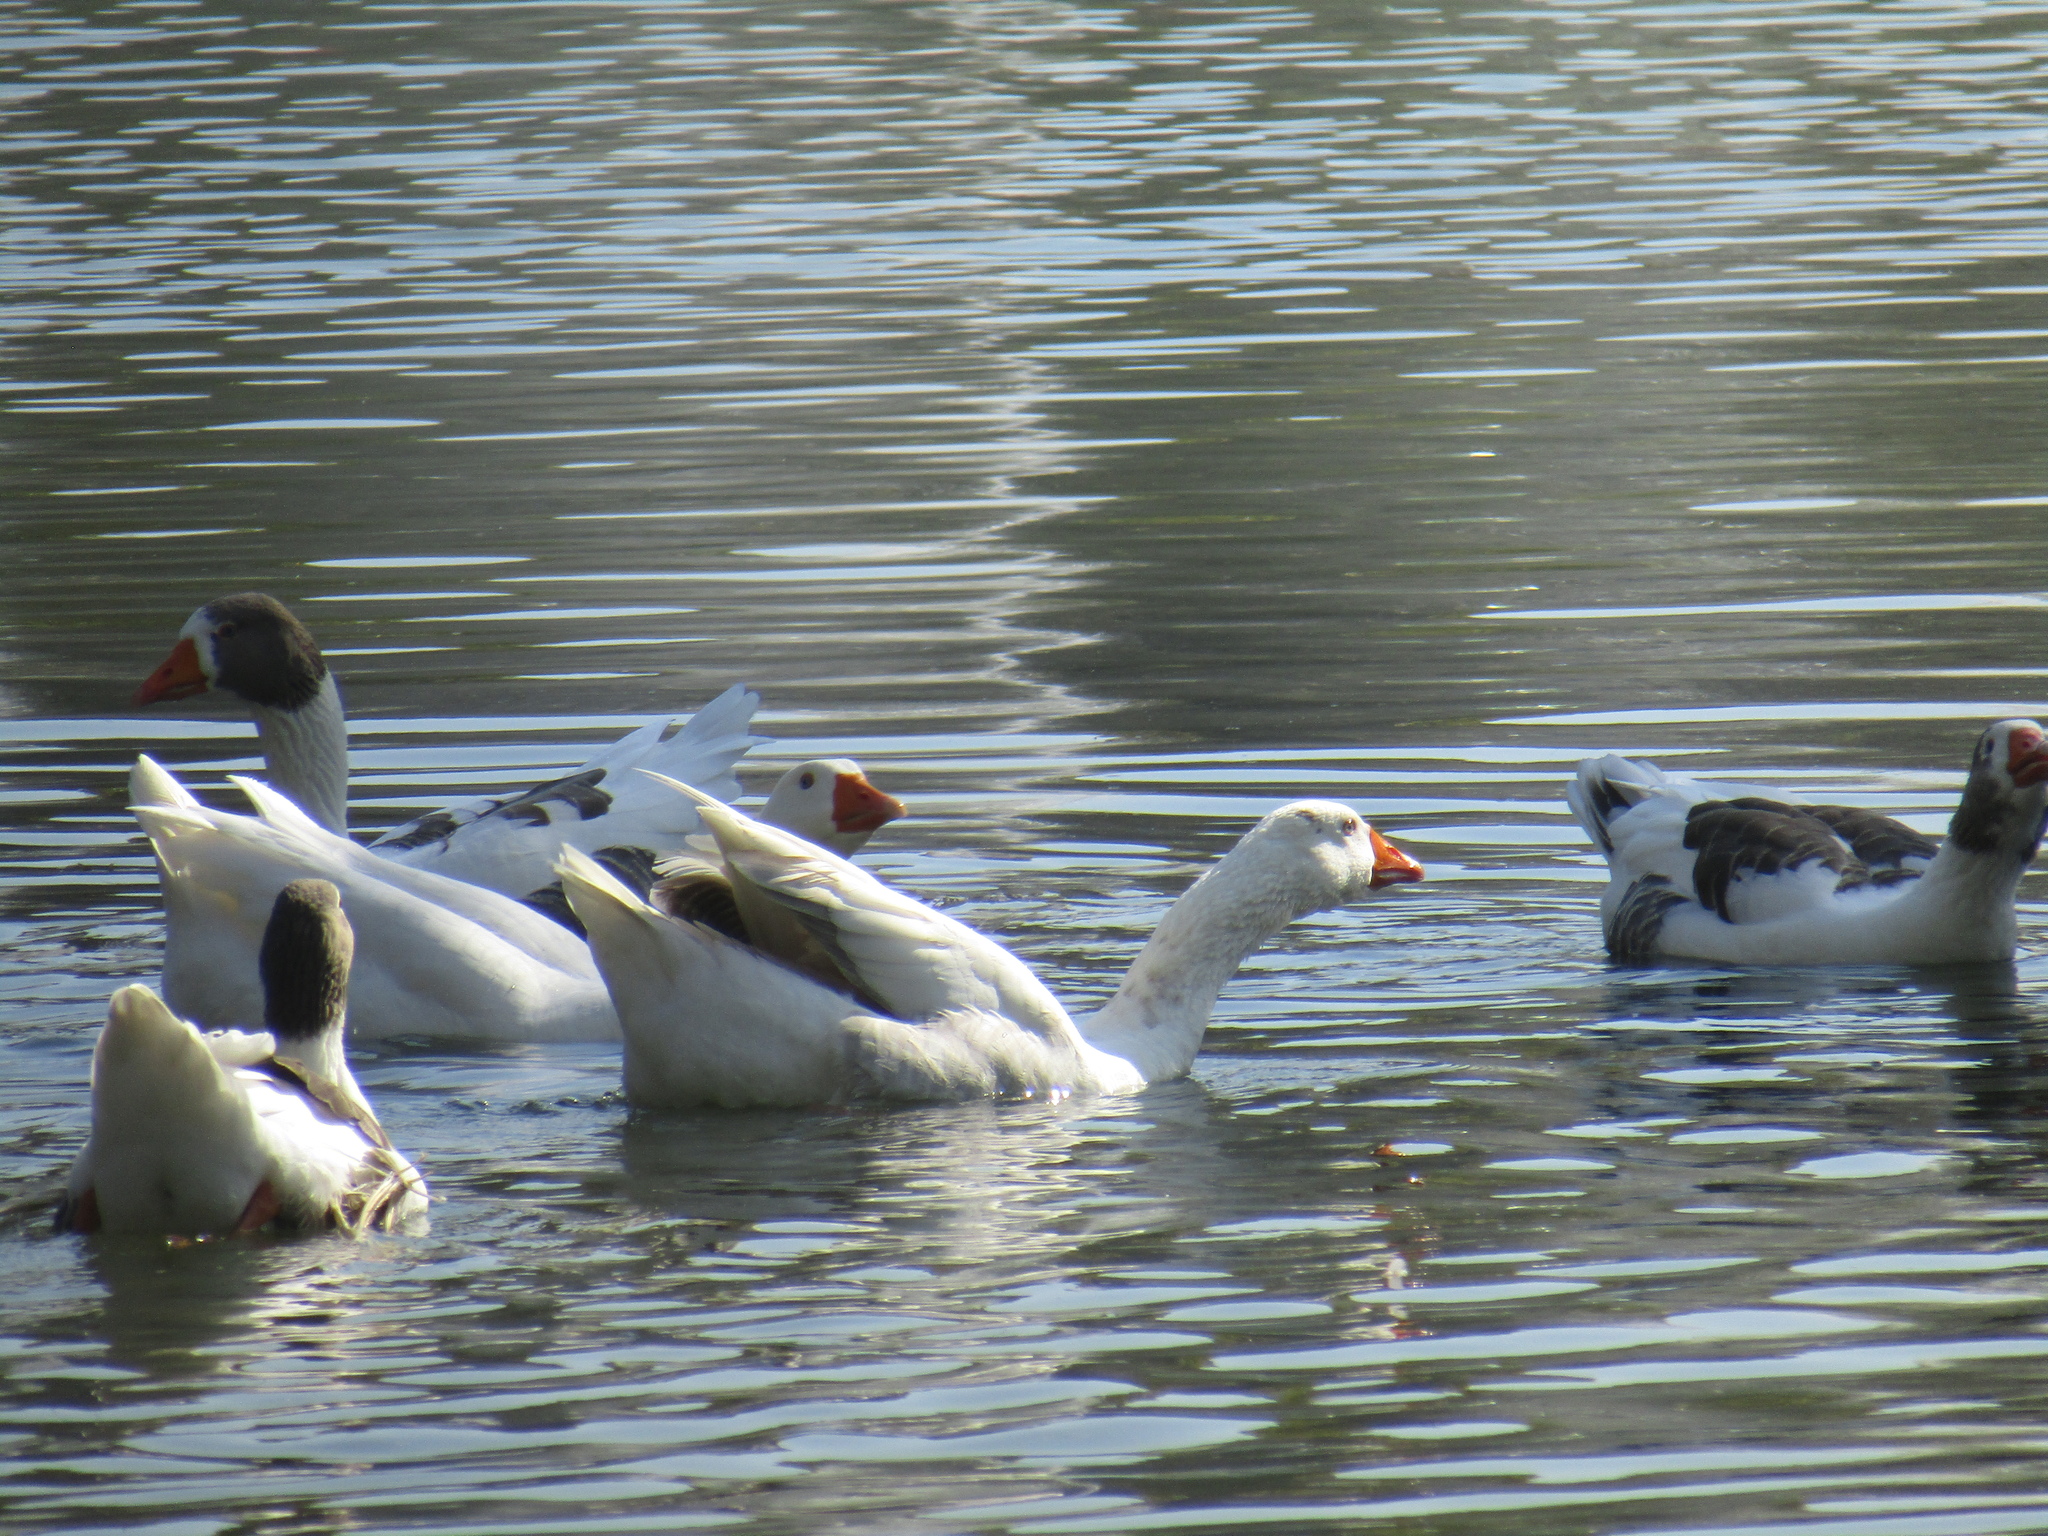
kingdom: Animalia
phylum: Chordata
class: Aves
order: Anseriformes
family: Anatidae
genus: Anser
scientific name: Anser anser
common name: Greylag goose
